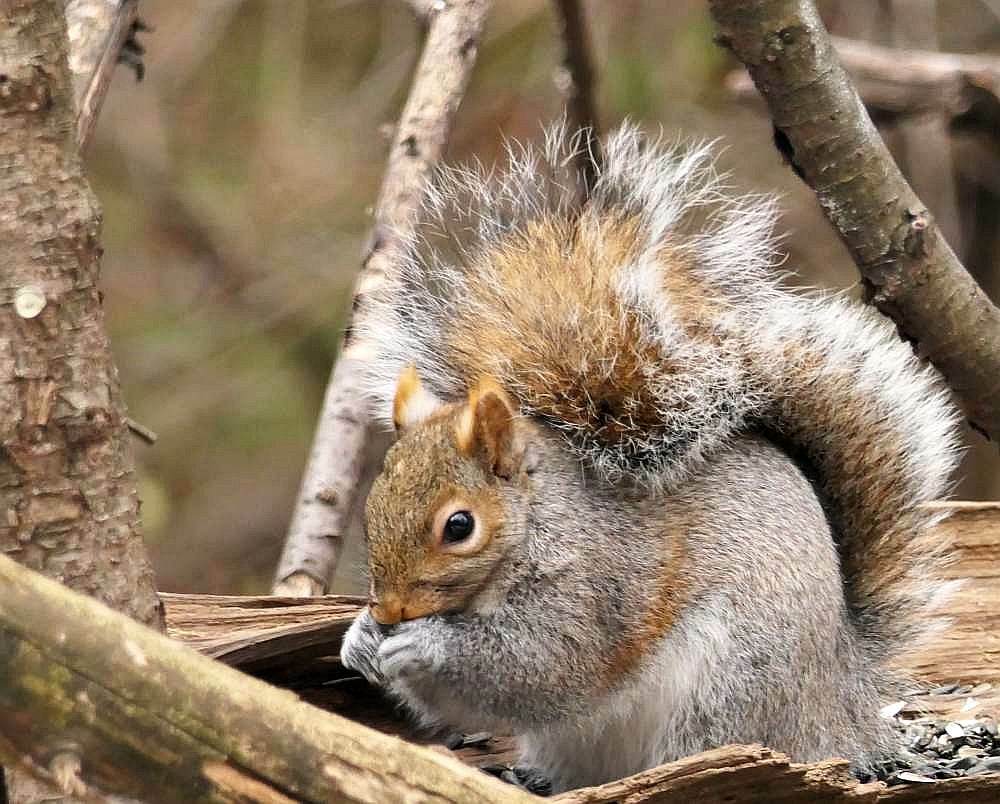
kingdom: Animalia
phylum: Chordata
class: Mammalia
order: Rodentia
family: Sciuridae
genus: Sciurus
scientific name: Sciurus carolinensis
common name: Eastern gray squirrel
